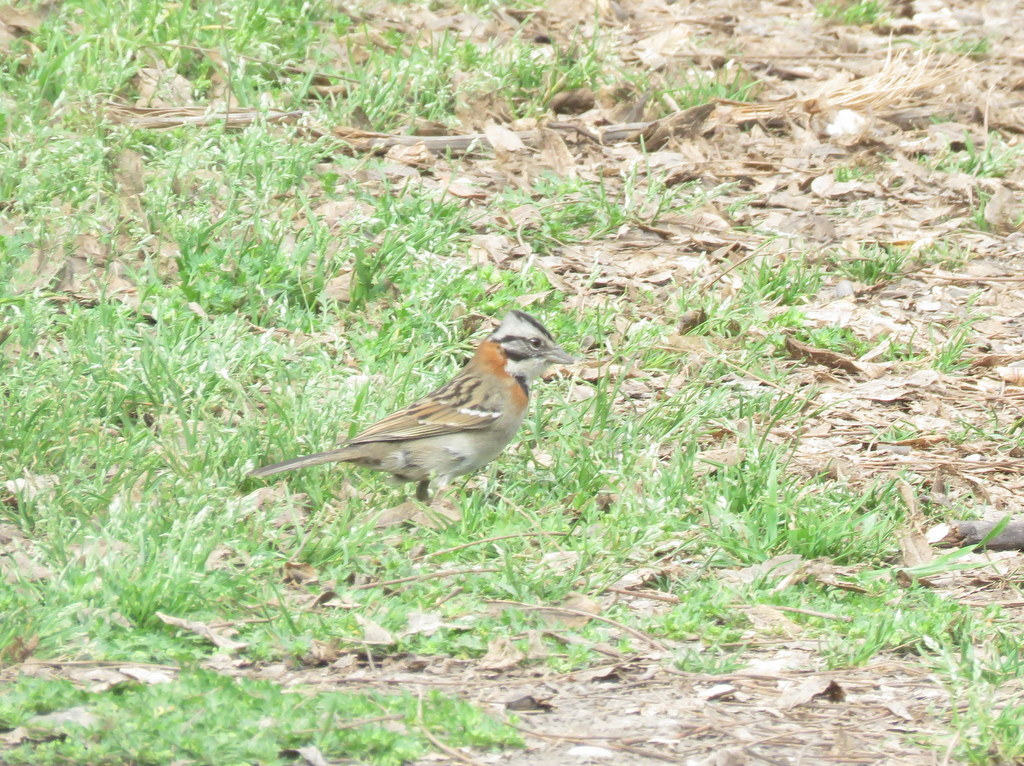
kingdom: Animalia
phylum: Chordata
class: Aves
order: Passeriformes
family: Passerellidae
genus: Zonotrichia
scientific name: Zonotrichia capensis
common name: Rufous-collared sparrow
